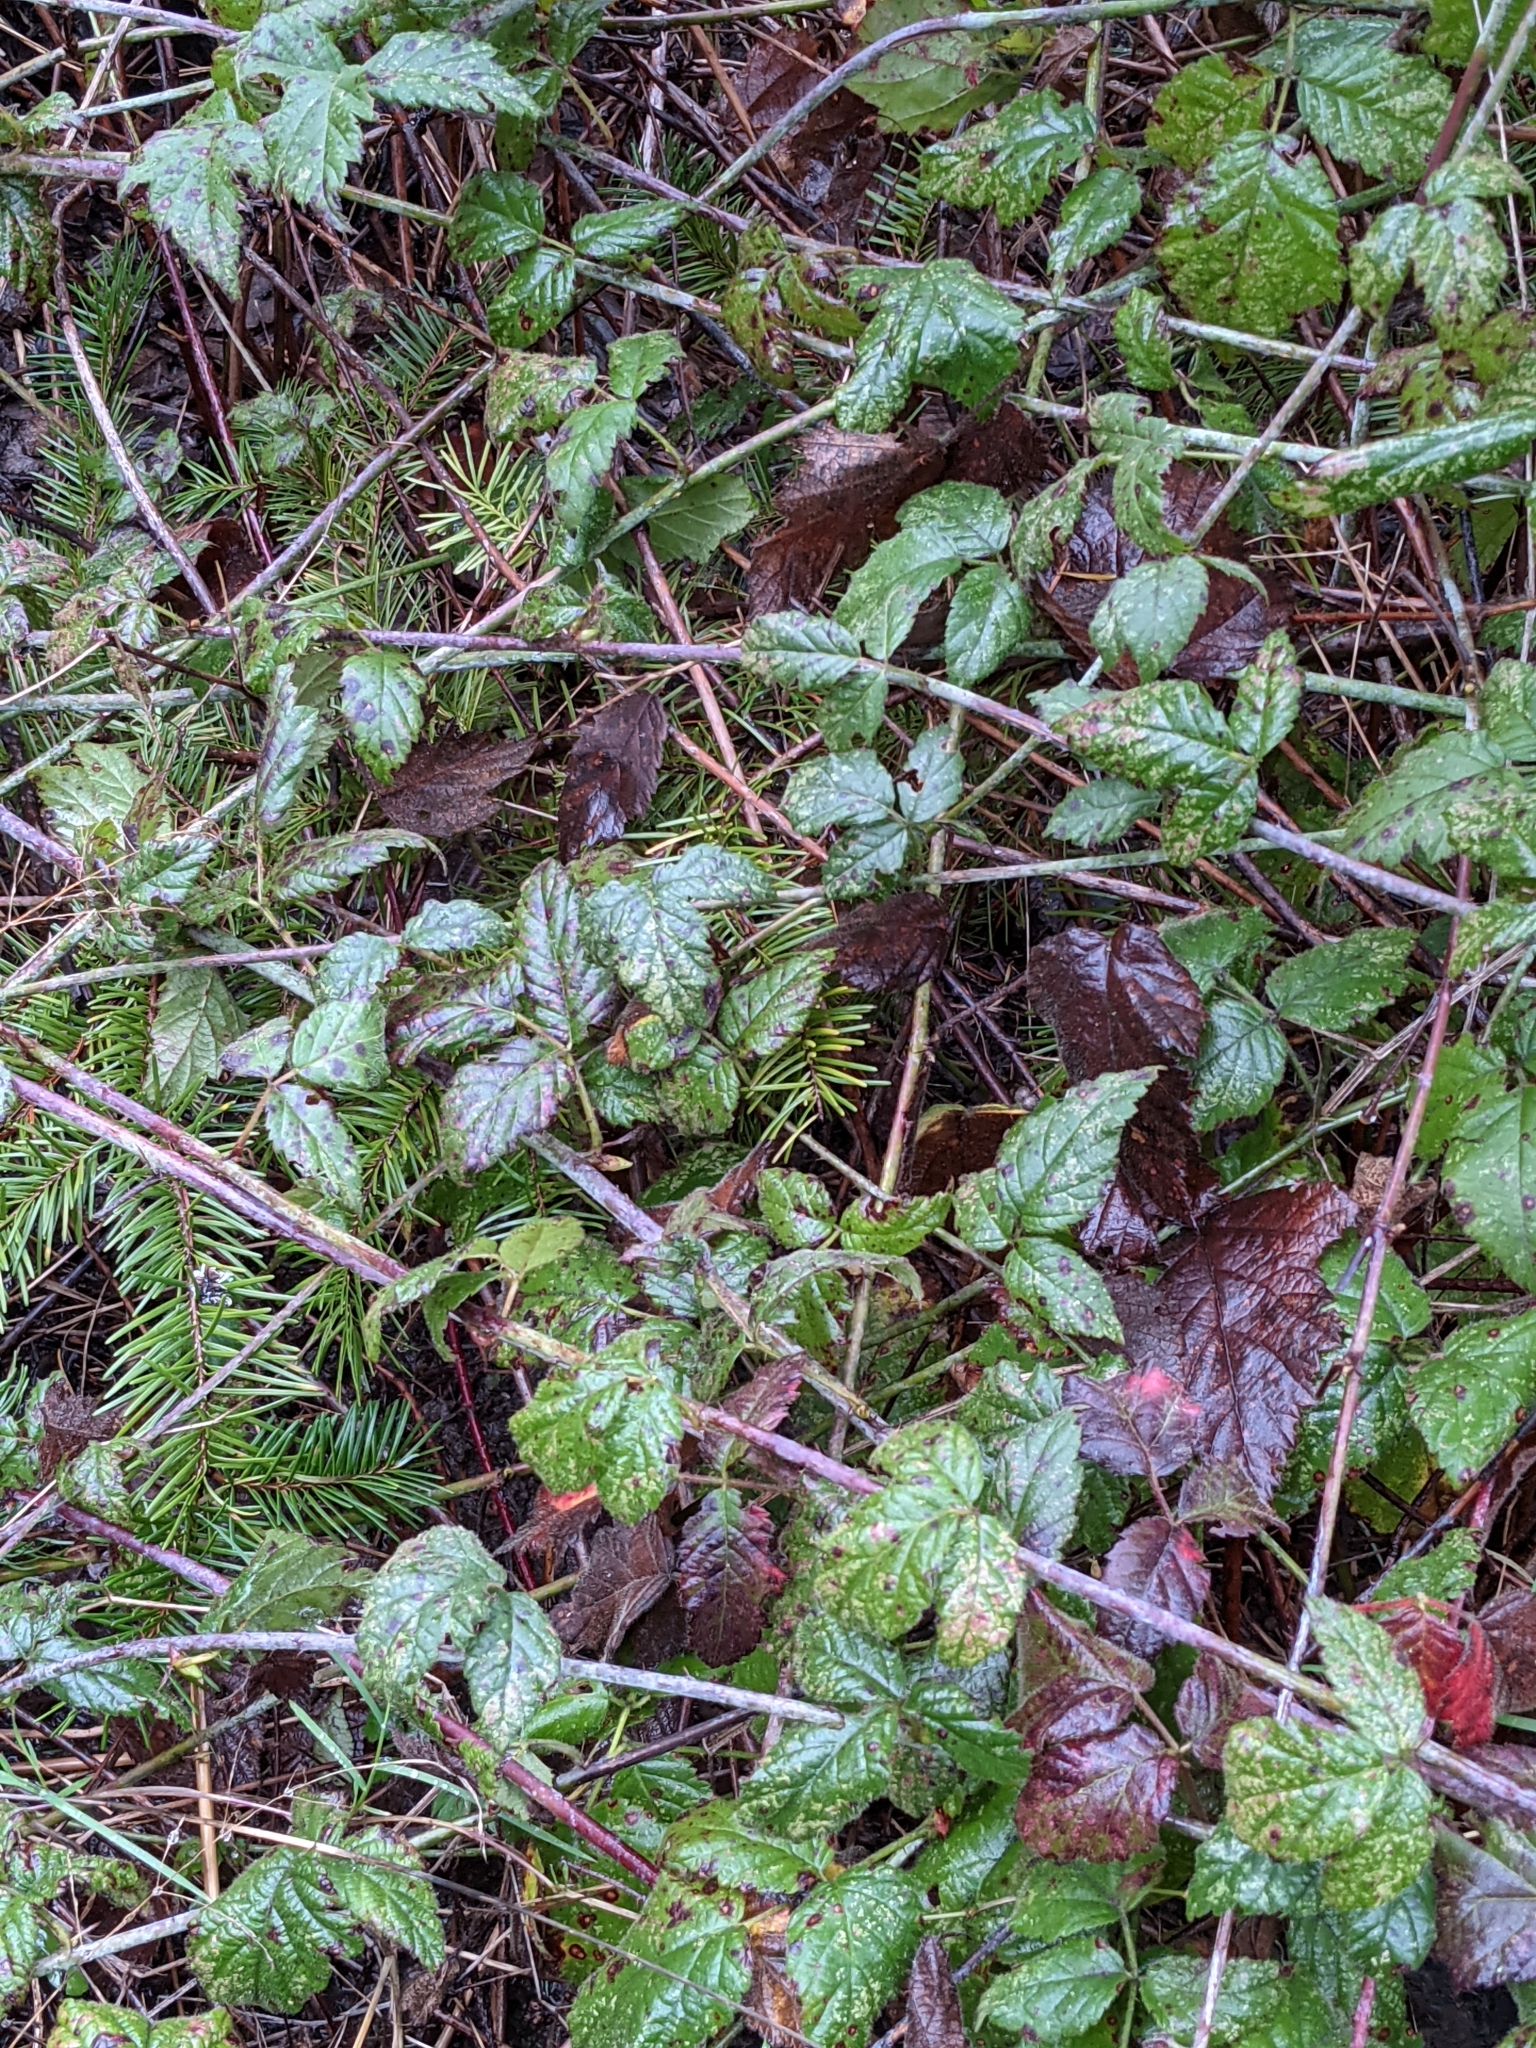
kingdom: Plantae
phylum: Tracheophyta
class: Magnoliopsida
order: Rosales
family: Rosaceae
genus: Rubus
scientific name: Rubus ursinus
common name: Pacific blackberry
